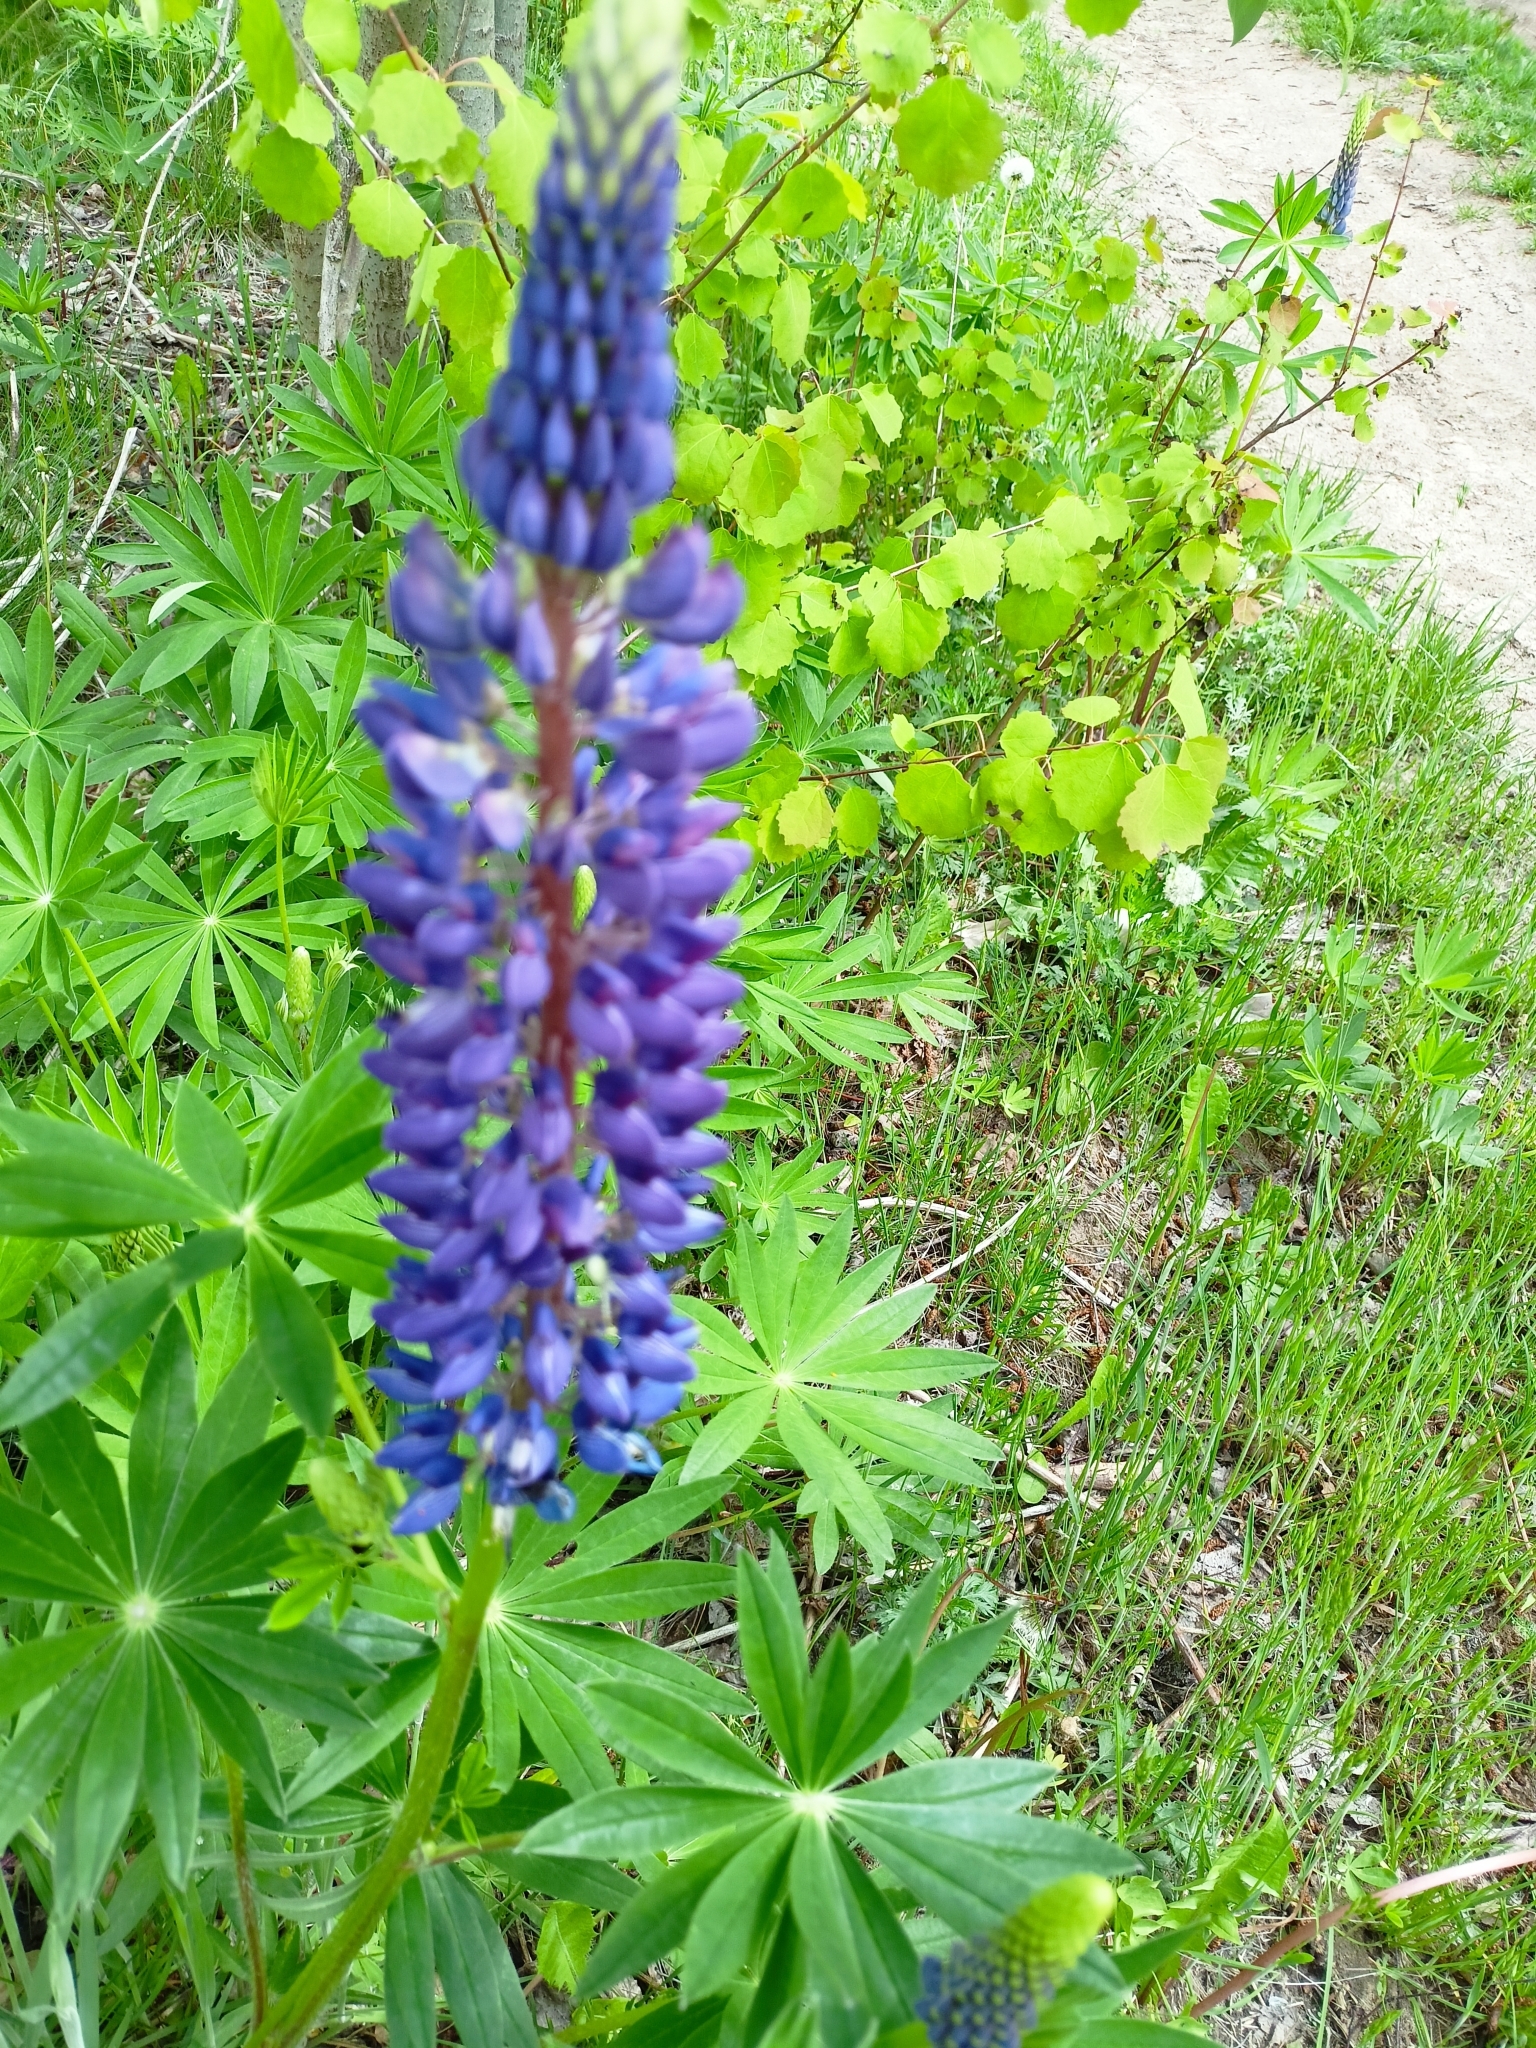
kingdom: Plantae
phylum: Tracheophyta
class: Magnoliopsida
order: Fabales
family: Fabaceae
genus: Lupinus
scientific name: Lupinus polyphyllus
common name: Garden lupin
